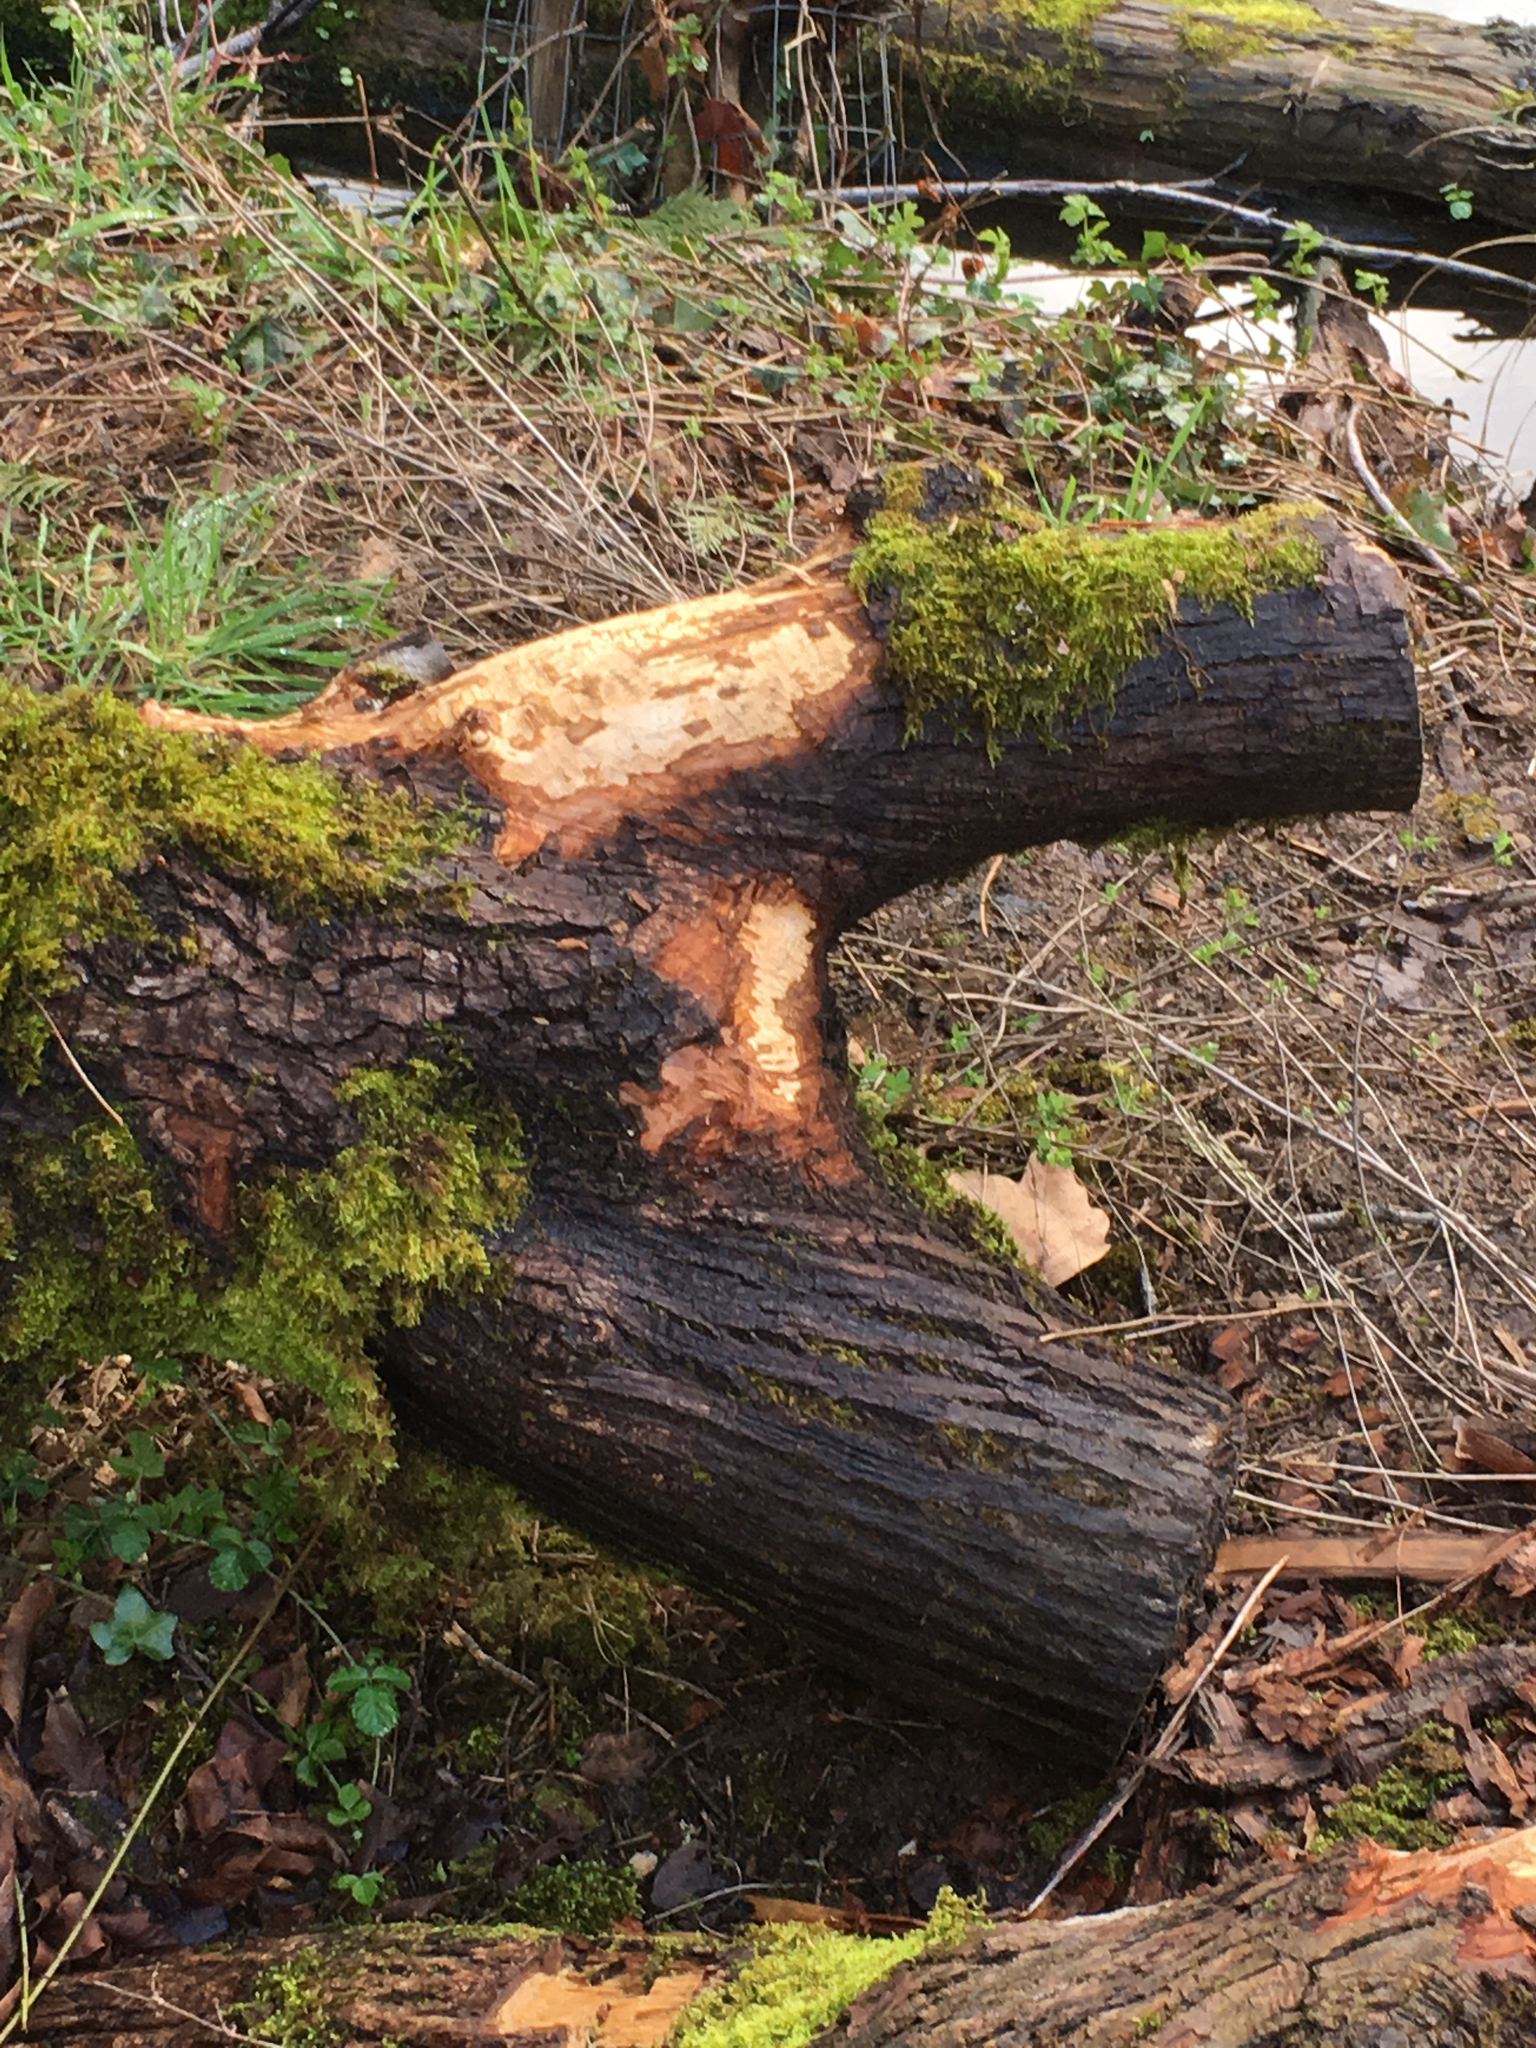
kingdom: Animalia
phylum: Chordata
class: Mammalia
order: Rodentia
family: Castoridae
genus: Castor
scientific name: Castor canadensis
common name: American beaver
